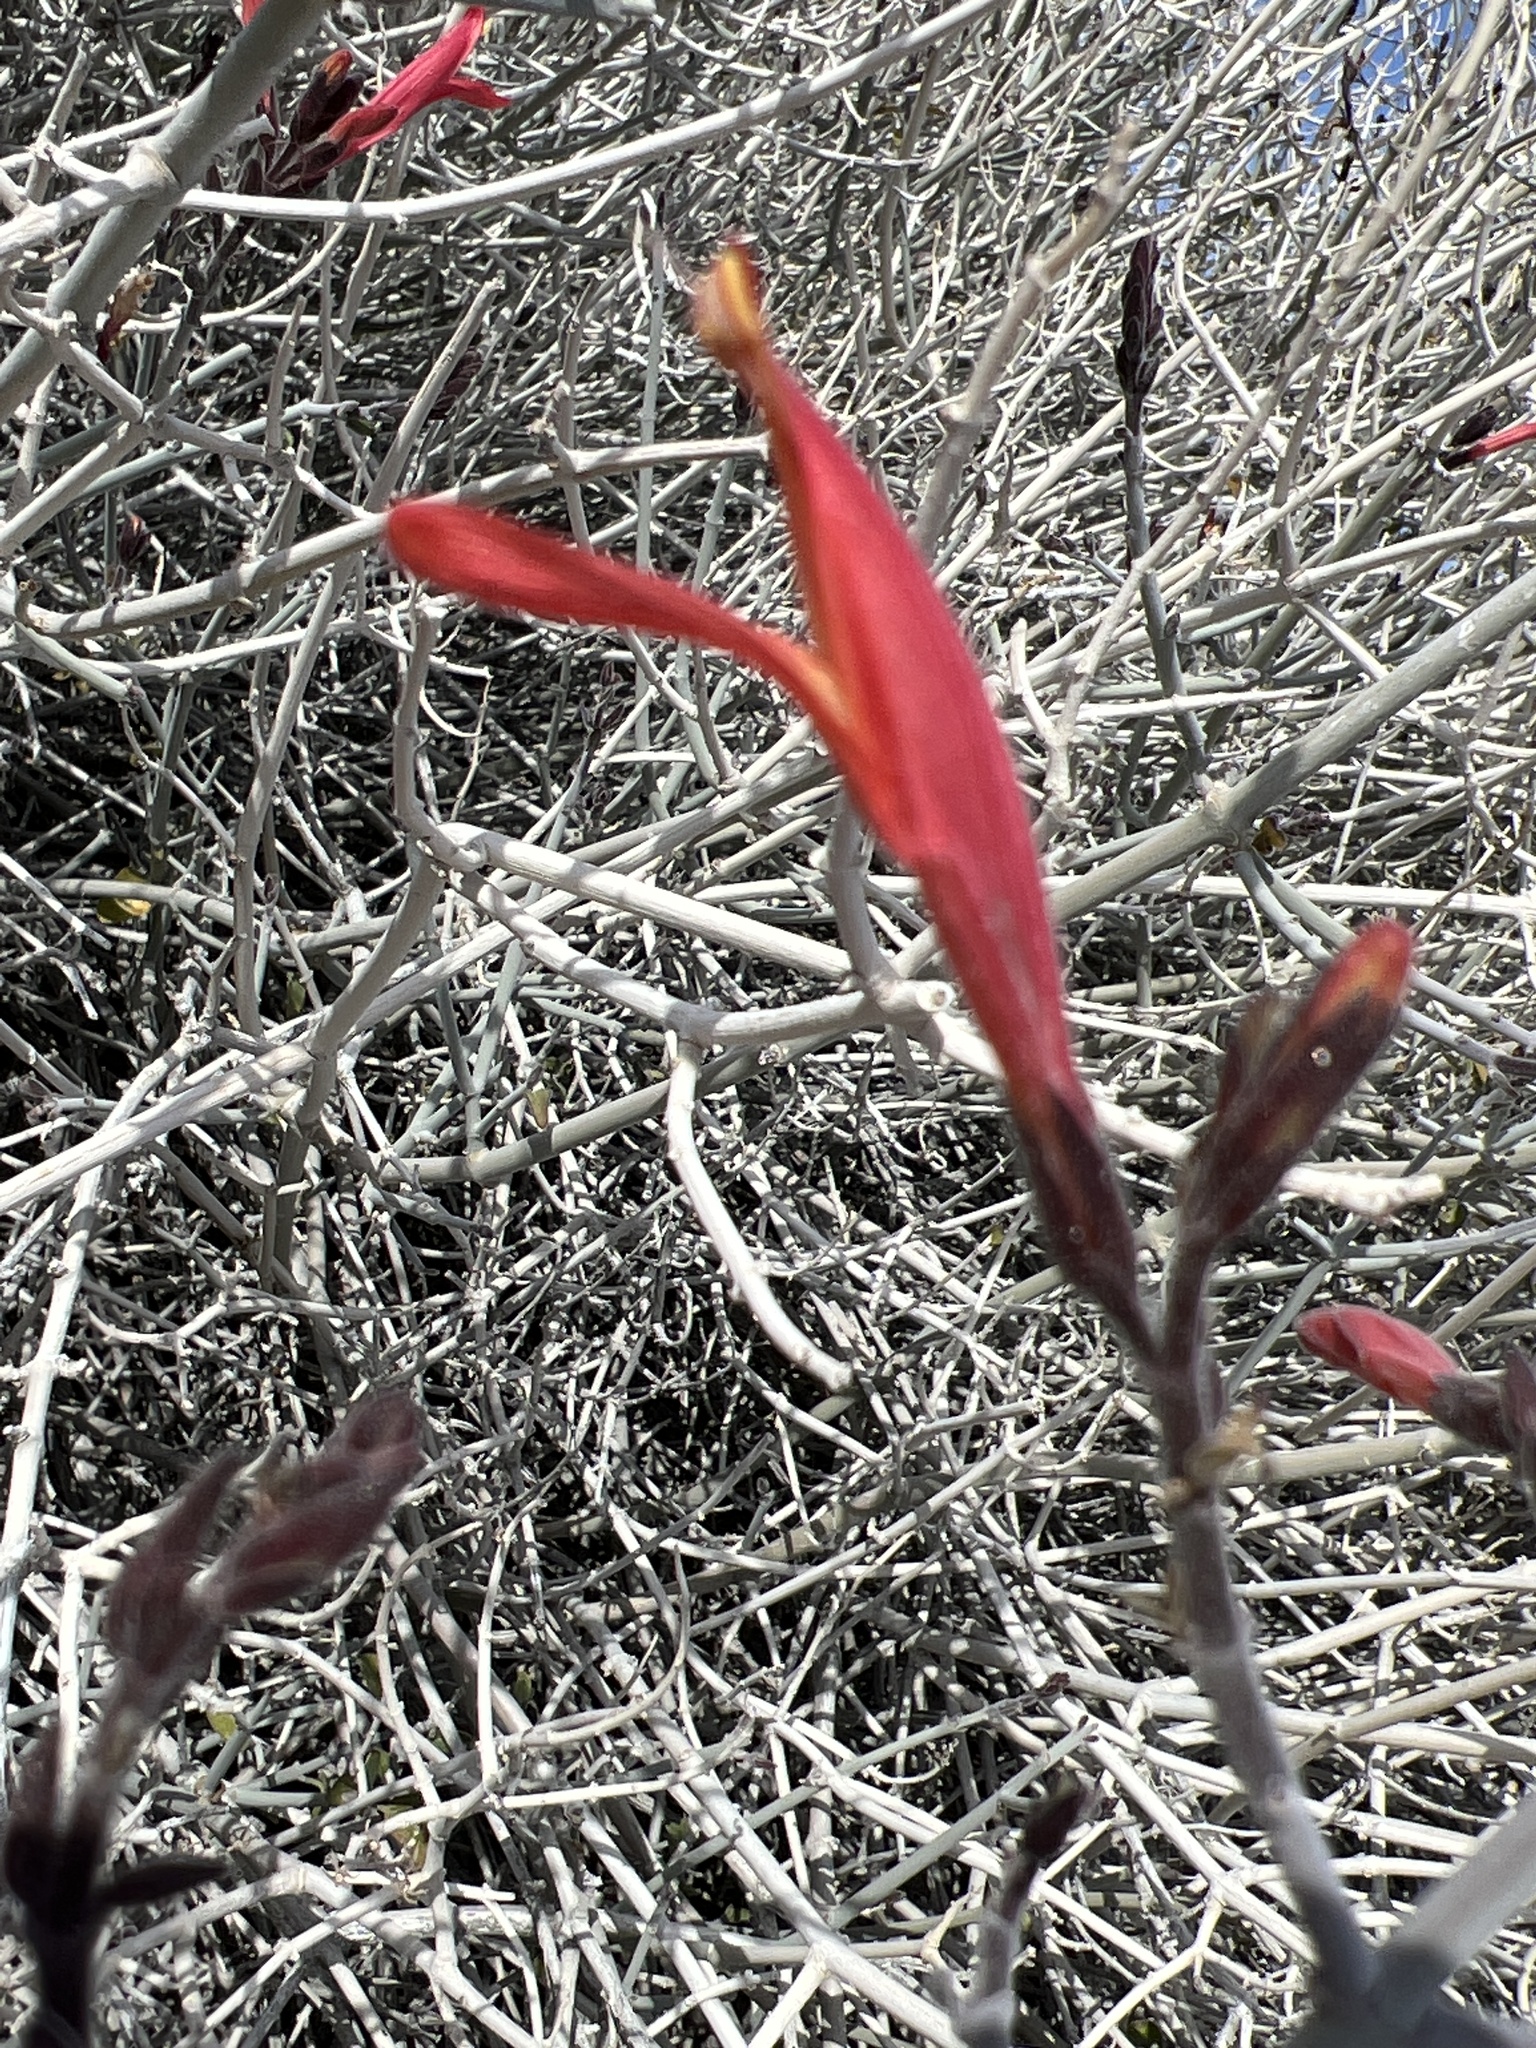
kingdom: Plantae
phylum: Tracheophyta
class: Magnoliopsida
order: Lamiales
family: Acanthaceae
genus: Justicia
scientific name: Justicia californica
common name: Chuparosa-honeysuckle
